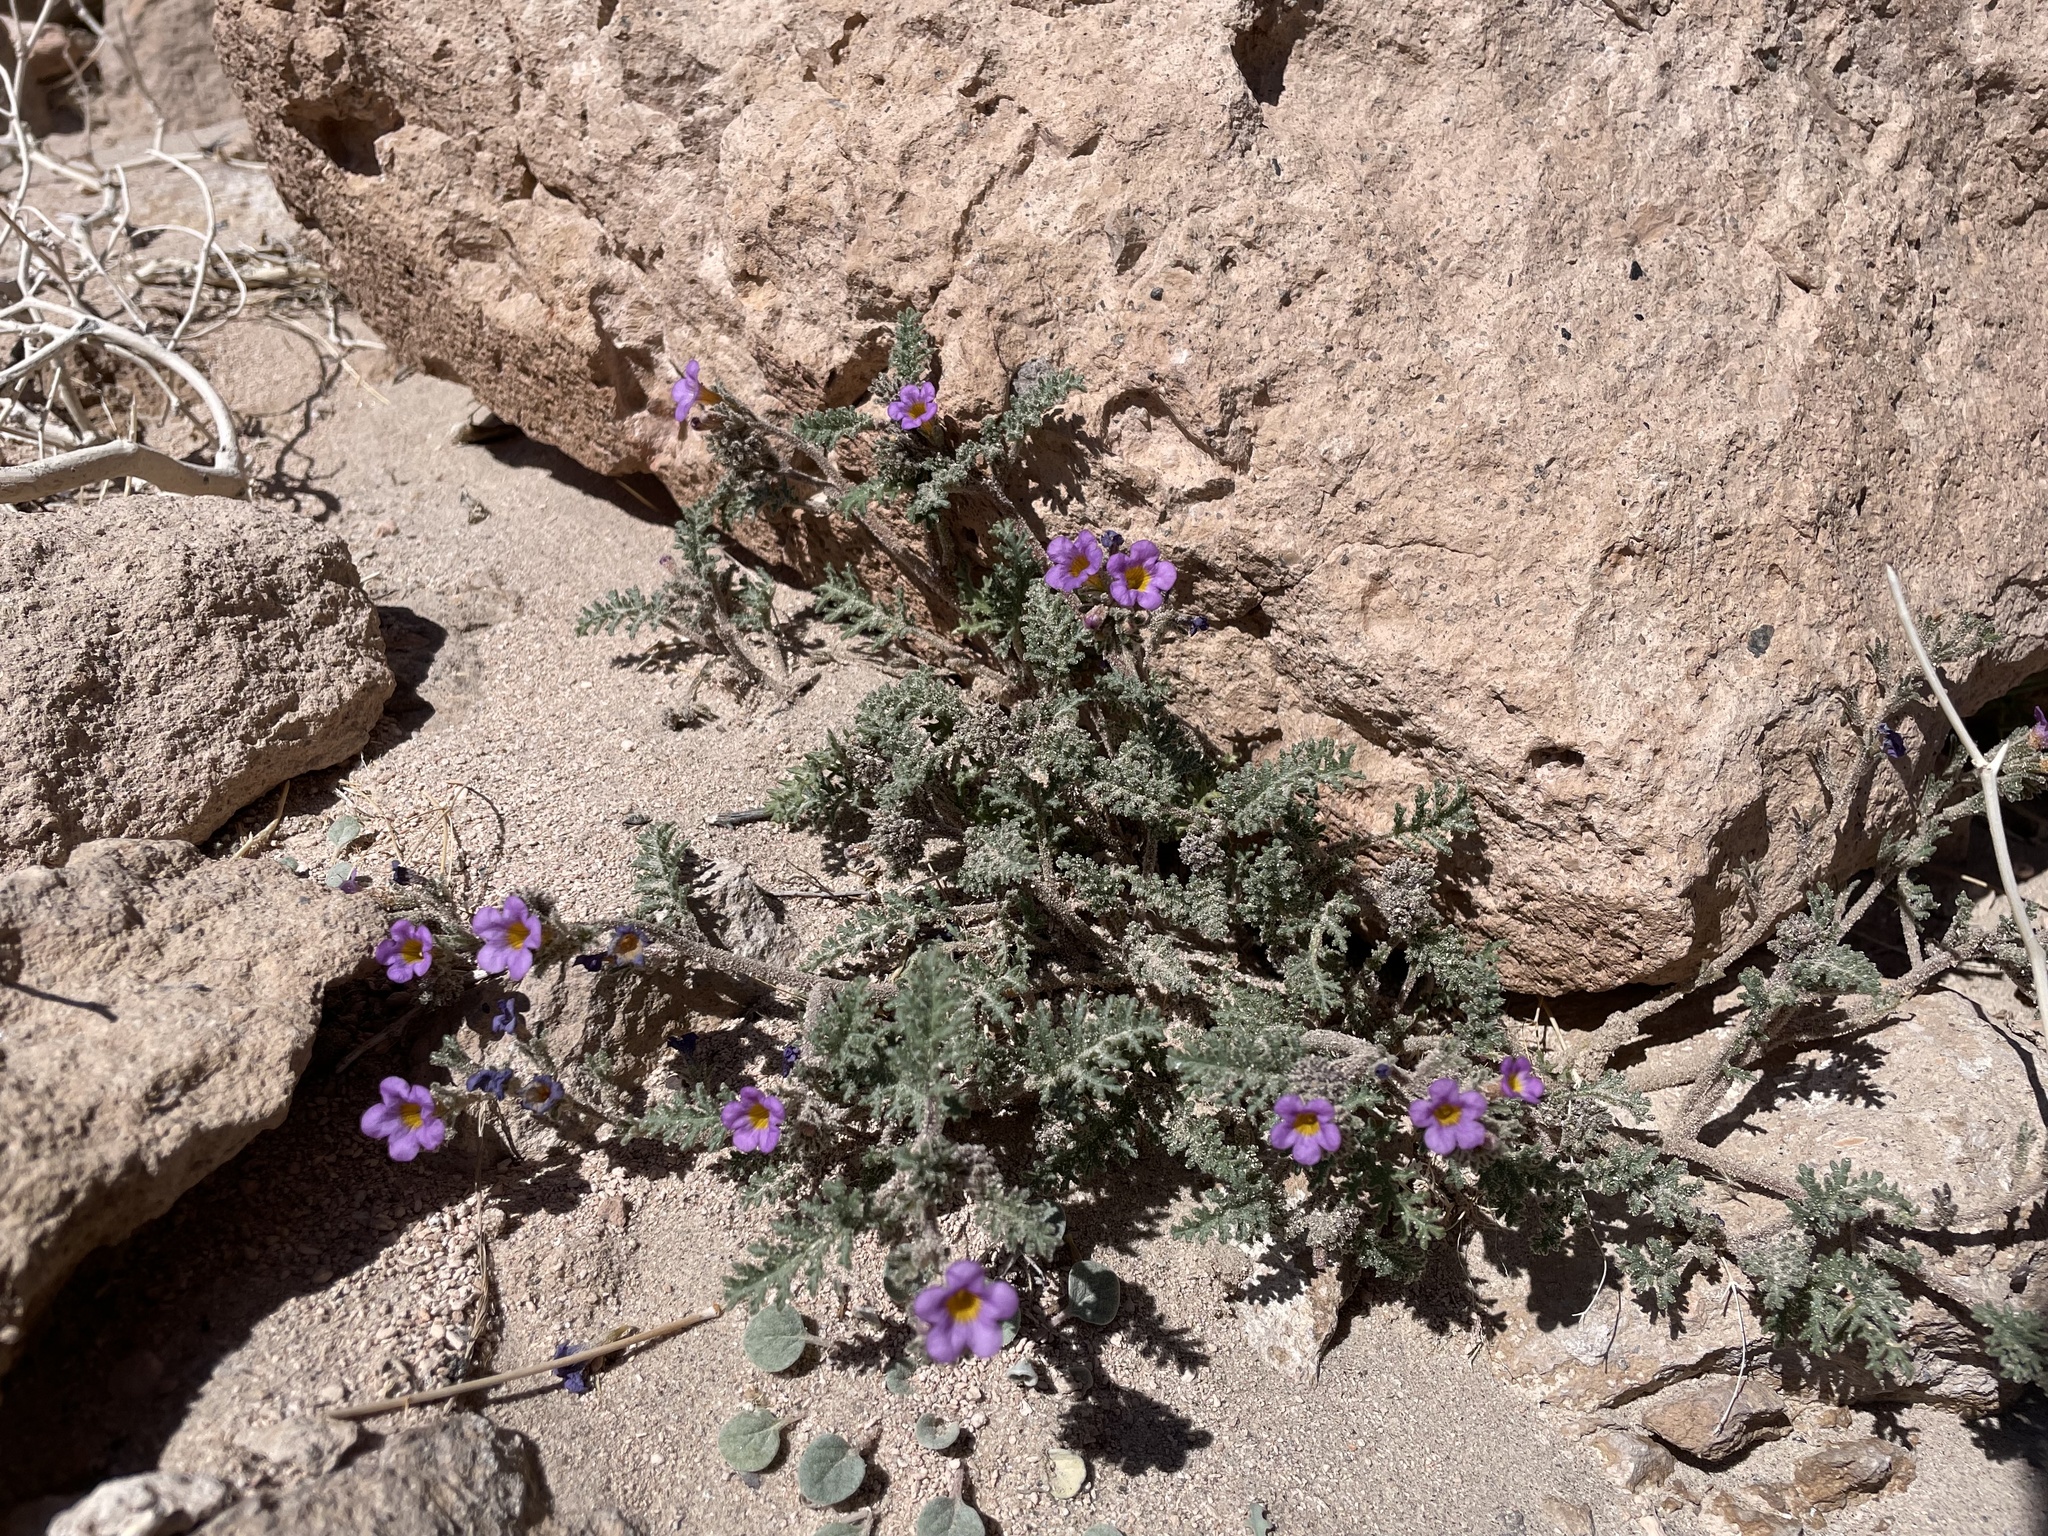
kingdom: Plantae
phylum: Tracheophyta
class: Magnoliopsida
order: Boraginales
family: Hydrophyllaceae
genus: Phacelia
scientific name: Phacelia bicolor
